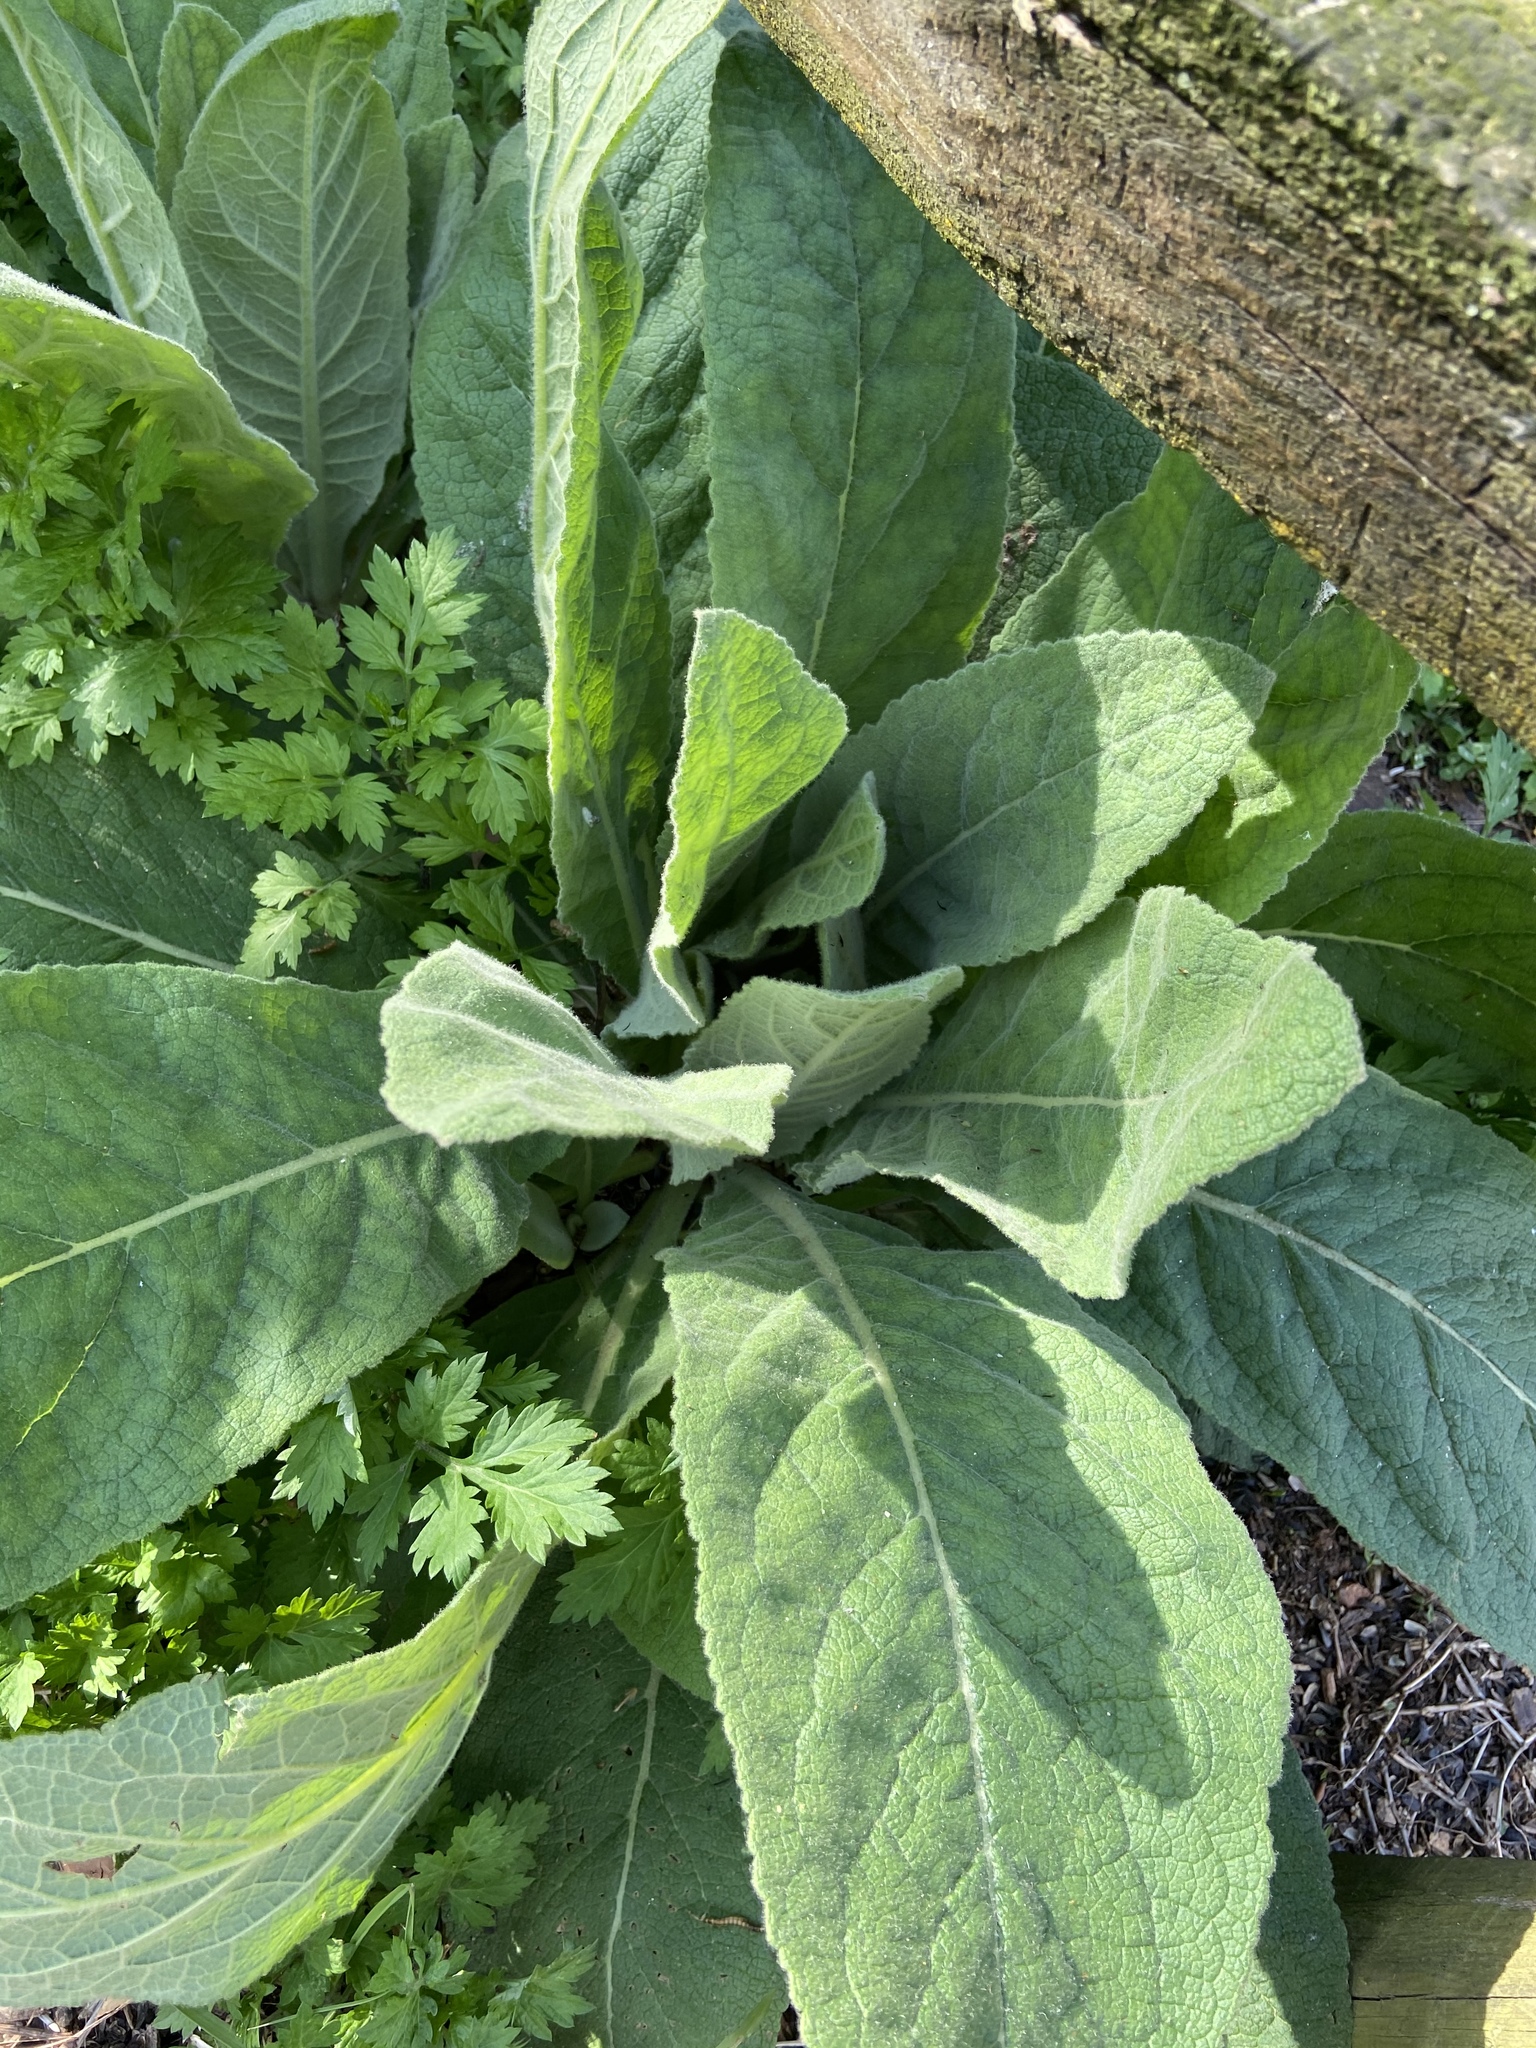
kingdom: Plantae
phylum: Tracheophyta
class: Magnoliopsida
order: Lamiales
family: Scrophulariaceae
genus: Verbascum
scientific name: Verbascum thapsus
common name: Common mullein
